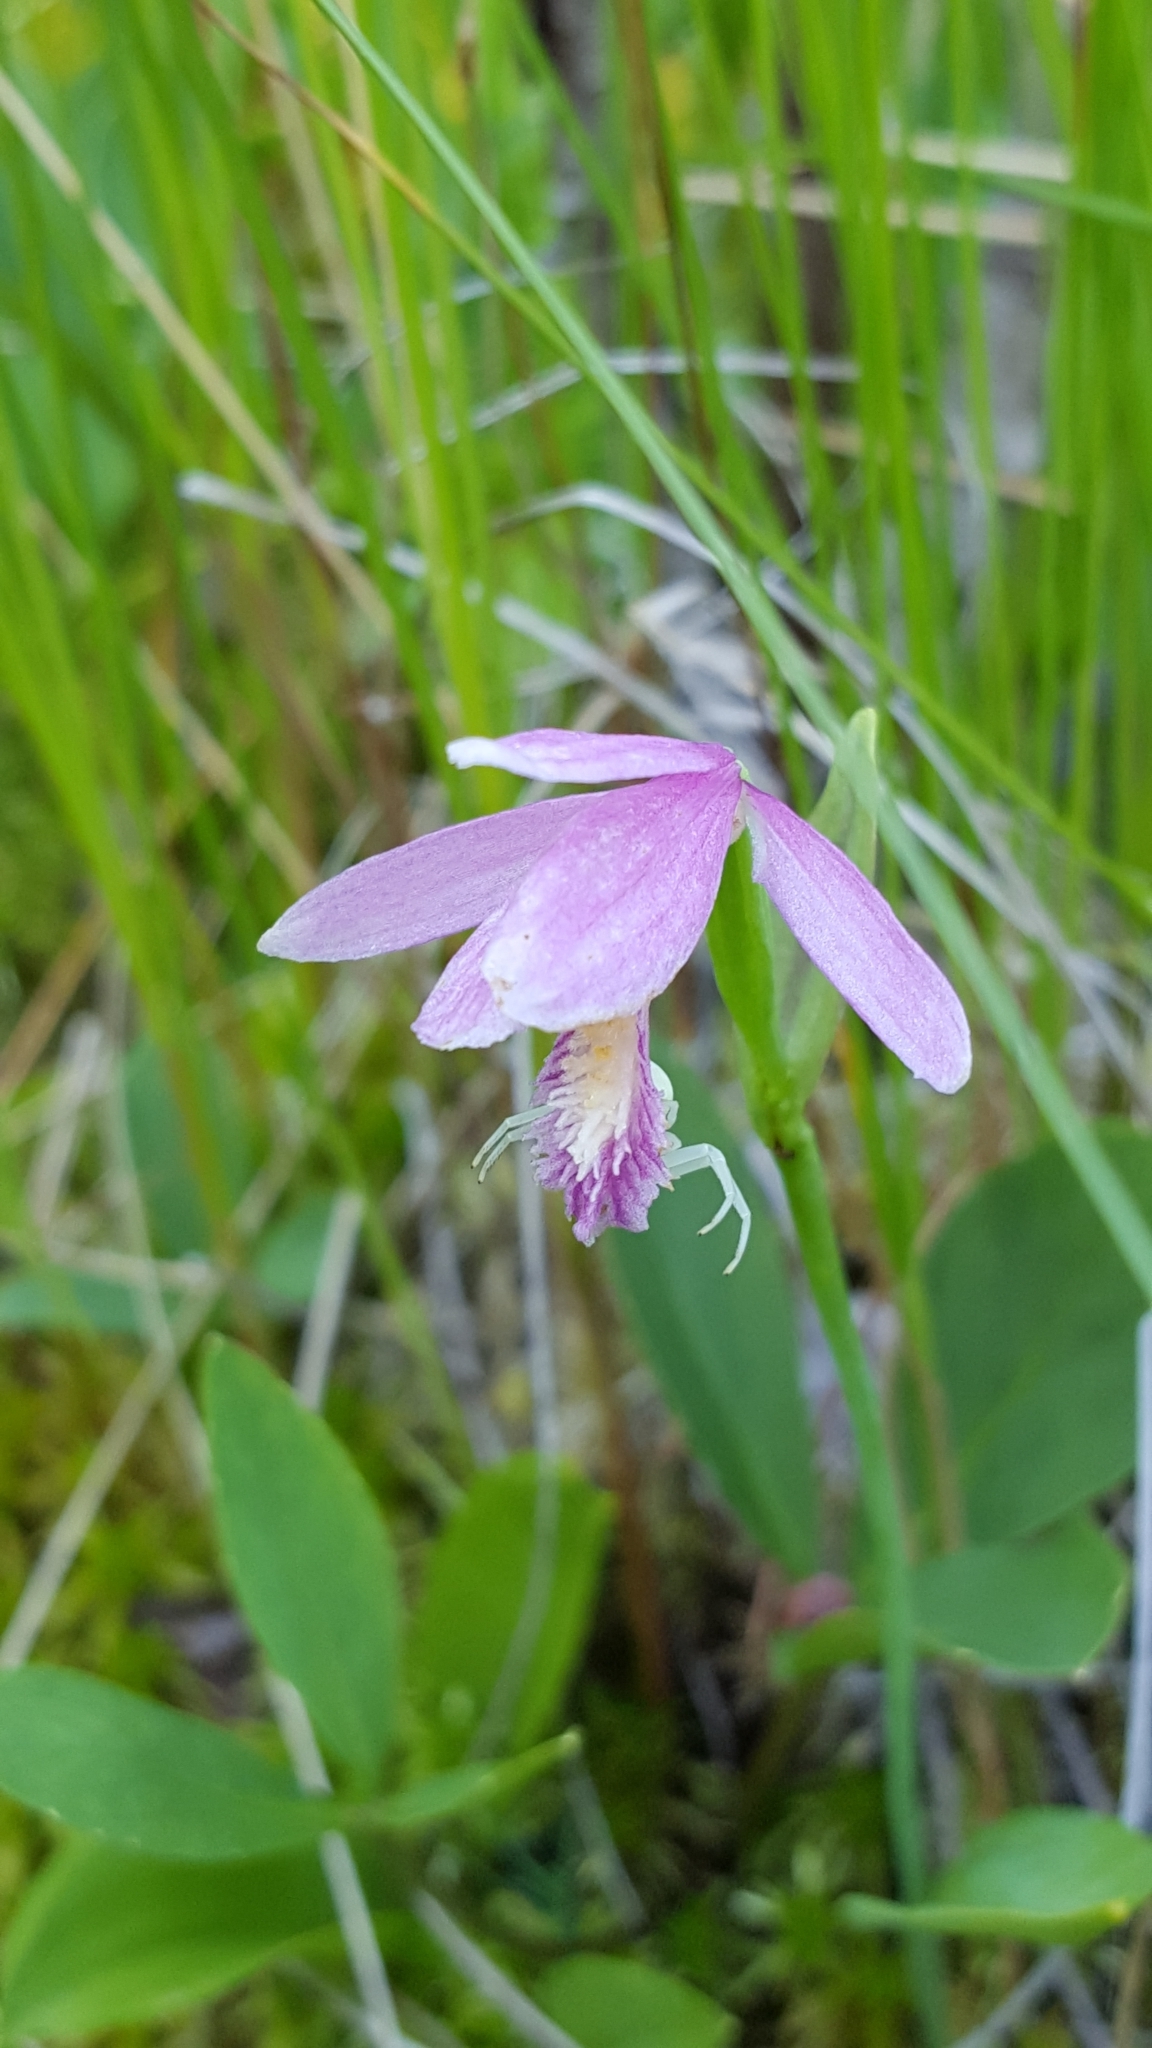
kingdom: Plantae
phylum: Tracheophyta
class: Liliopsida
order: Asparagales
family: Orchidaceae
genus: Pogonia
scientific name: Pogonia ophioglossoides
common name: Rose pogonia
